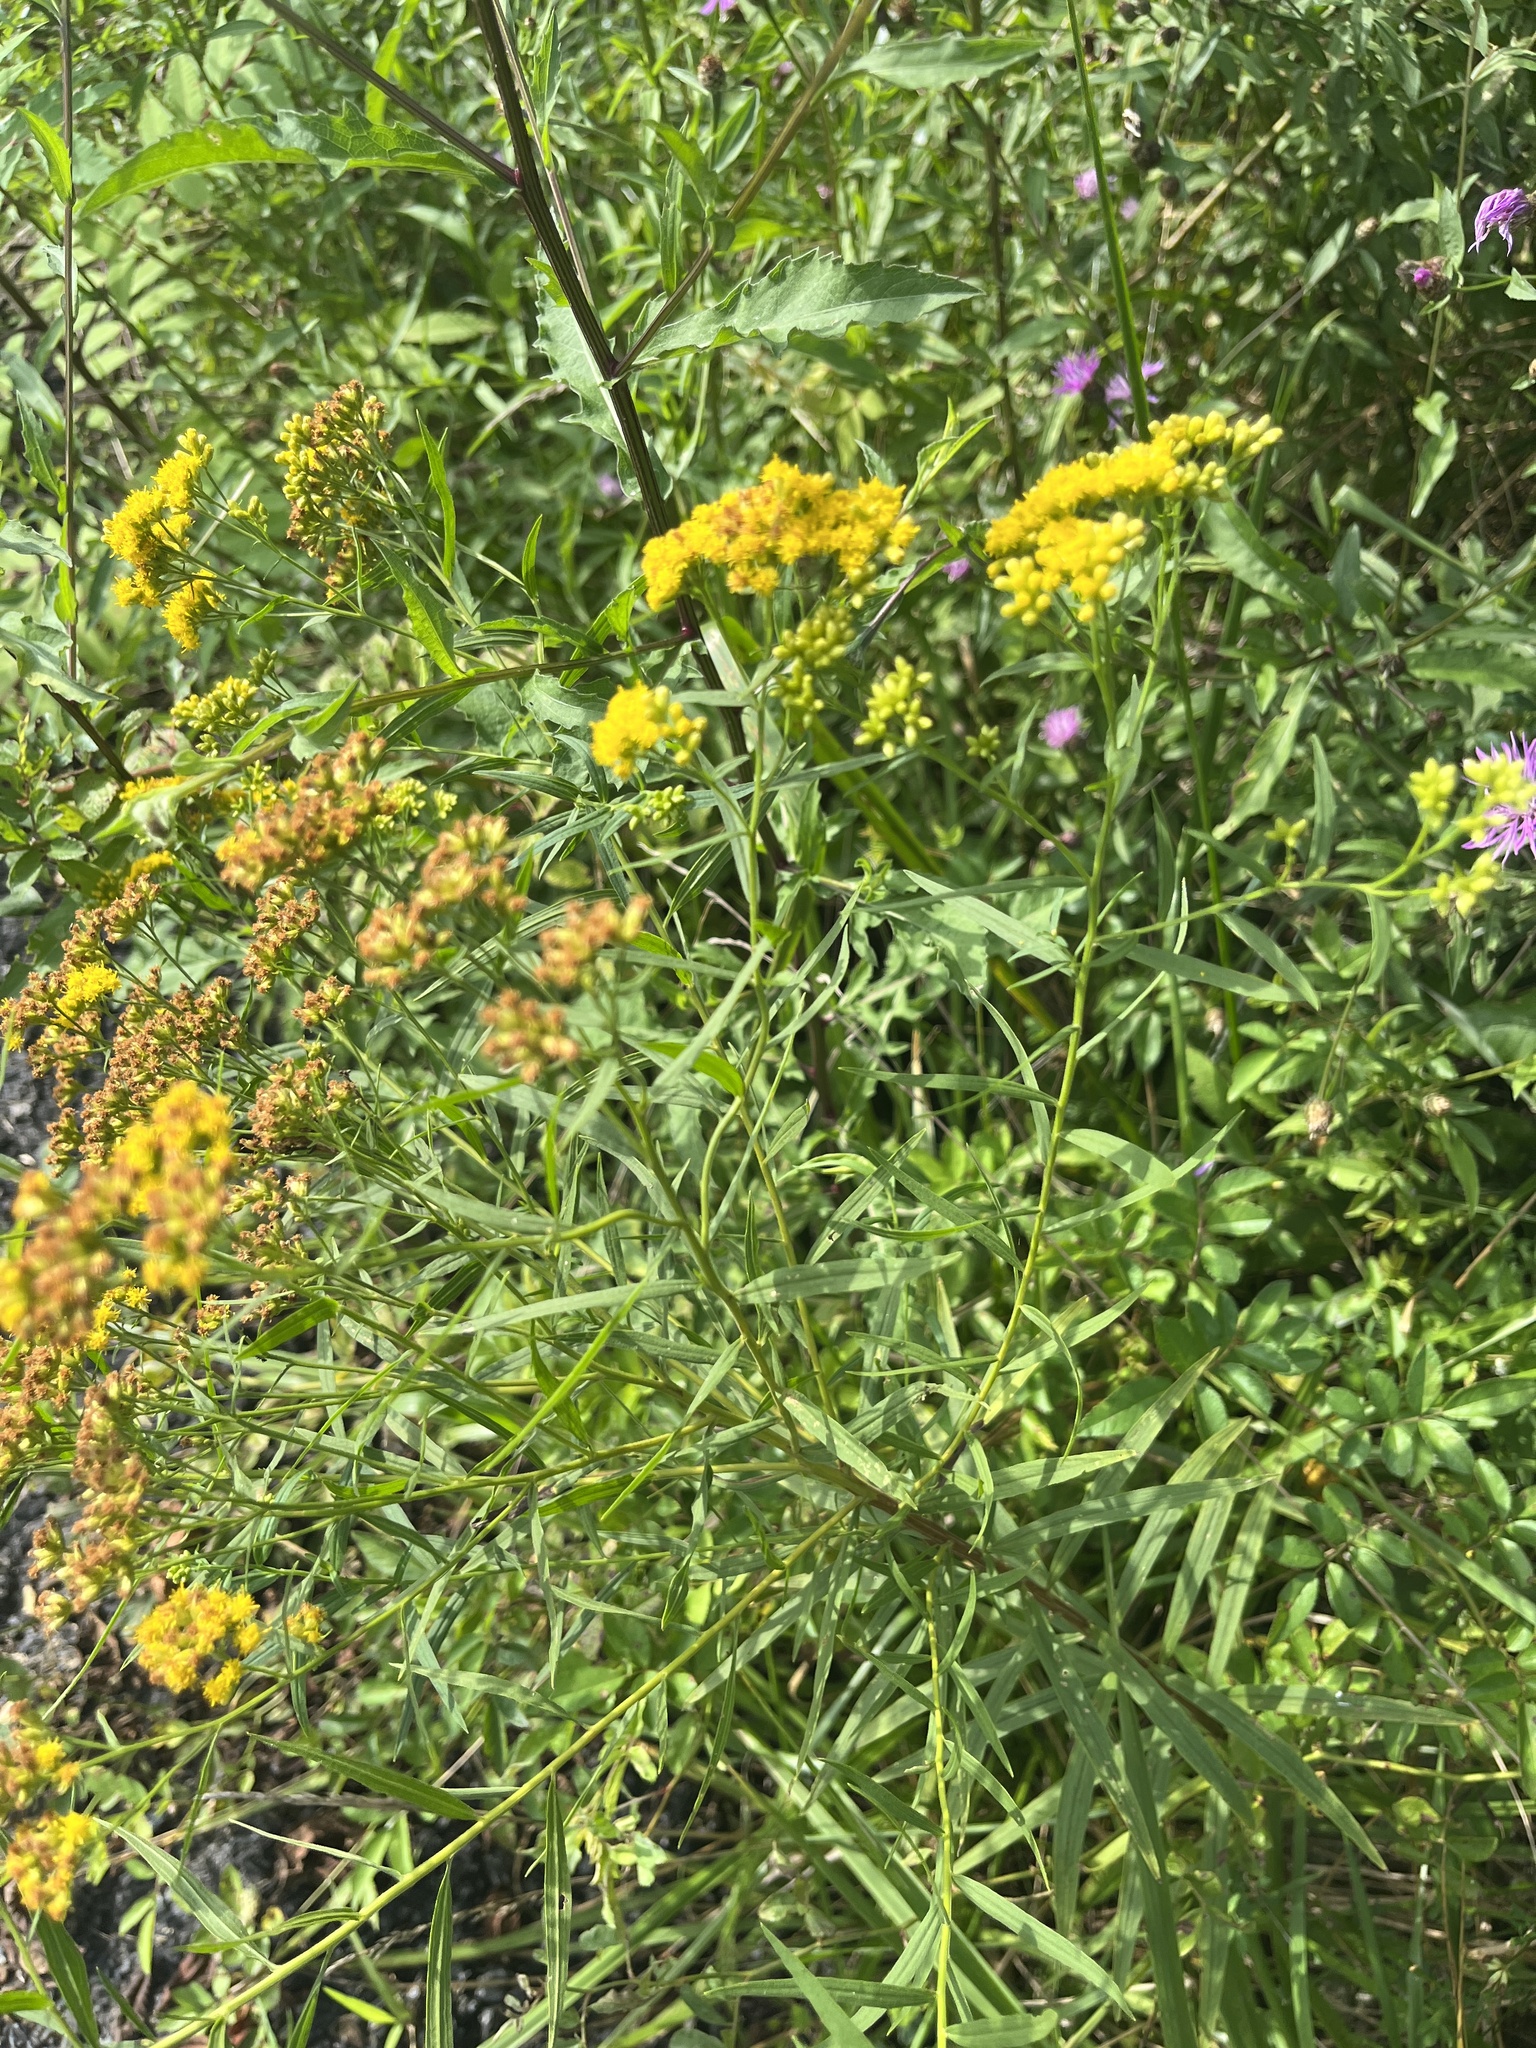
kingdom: Plantae
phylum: Tracheophyta
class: Magnoliopsida
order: Asterales
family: Asteraceae
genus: Euthamia
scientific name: Euthamia graminifolia
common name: Common goldentop
